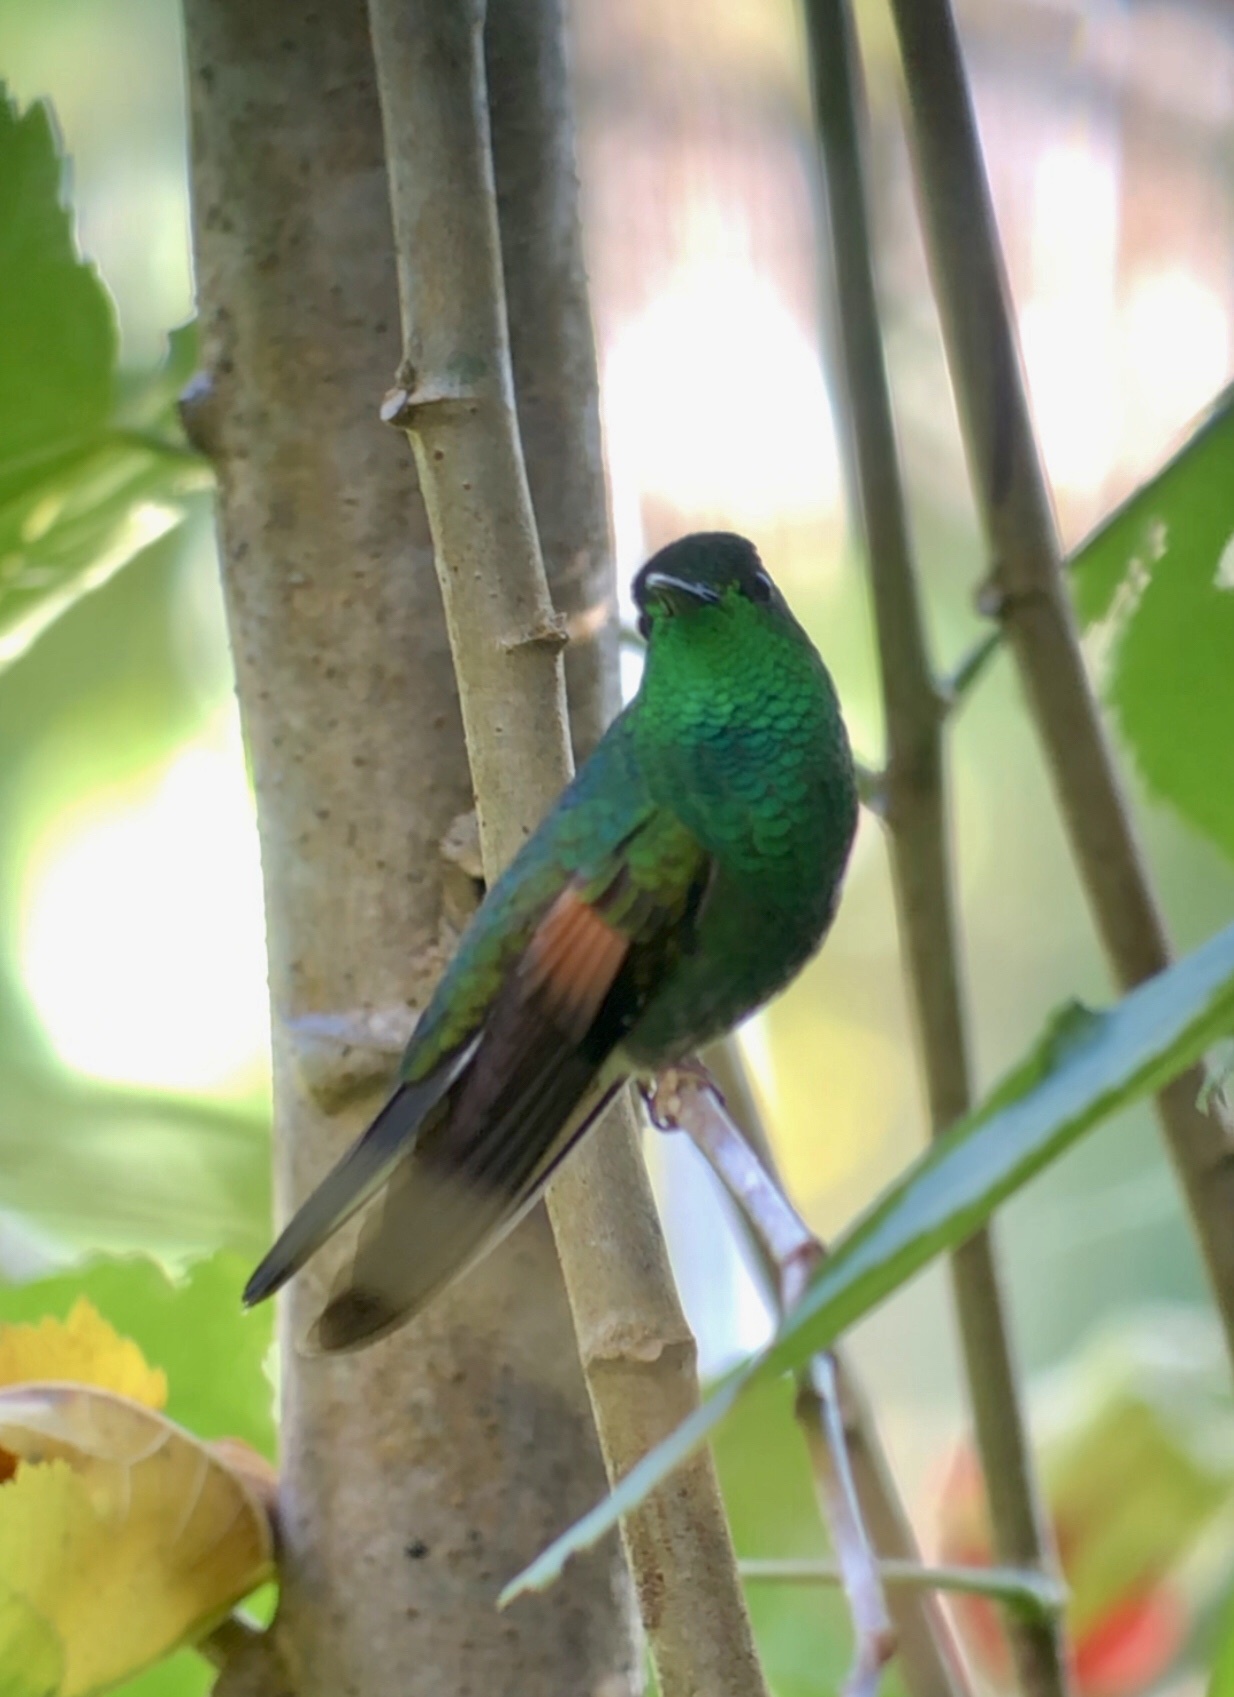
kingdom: Animalia
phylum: Chordata
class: Aves
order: Apodiformes
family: Trochilidae
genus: Eupherusa
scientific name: Eupherusa eximia
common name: Stripe-tailed hummingbird
